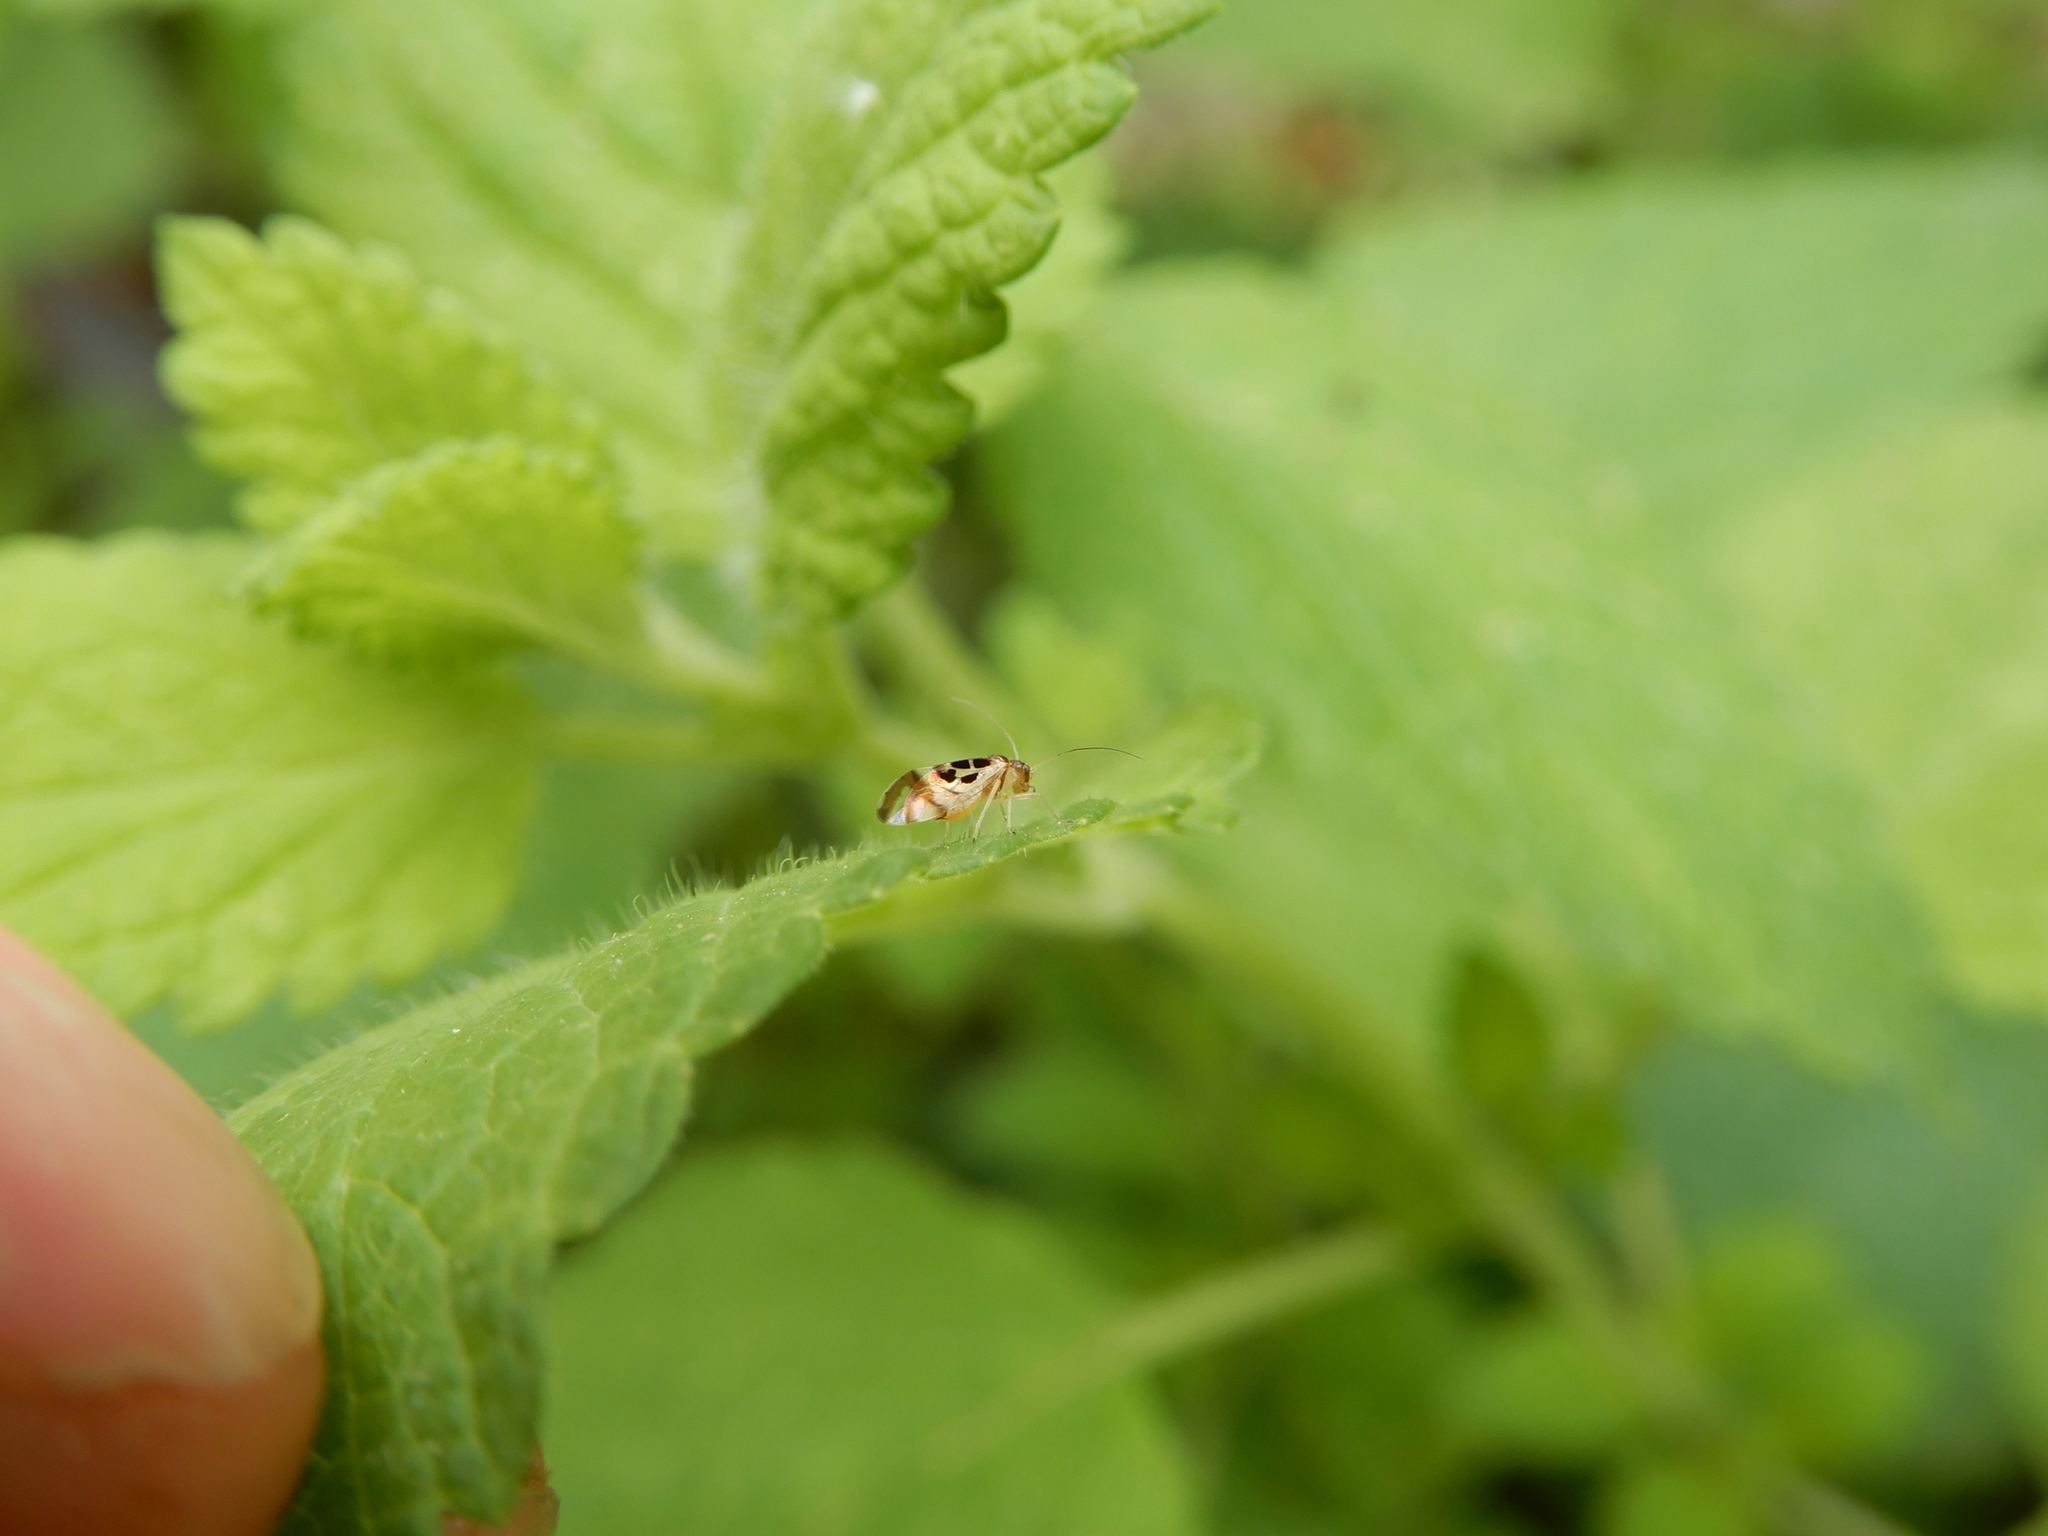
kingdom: Animalia
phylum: Arthropoda
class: Insecta
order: Psocodea
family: Stenopsocidae
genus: Graphopsocus
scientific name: Graphopsocus cruciatus
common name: Lizard bark louse
